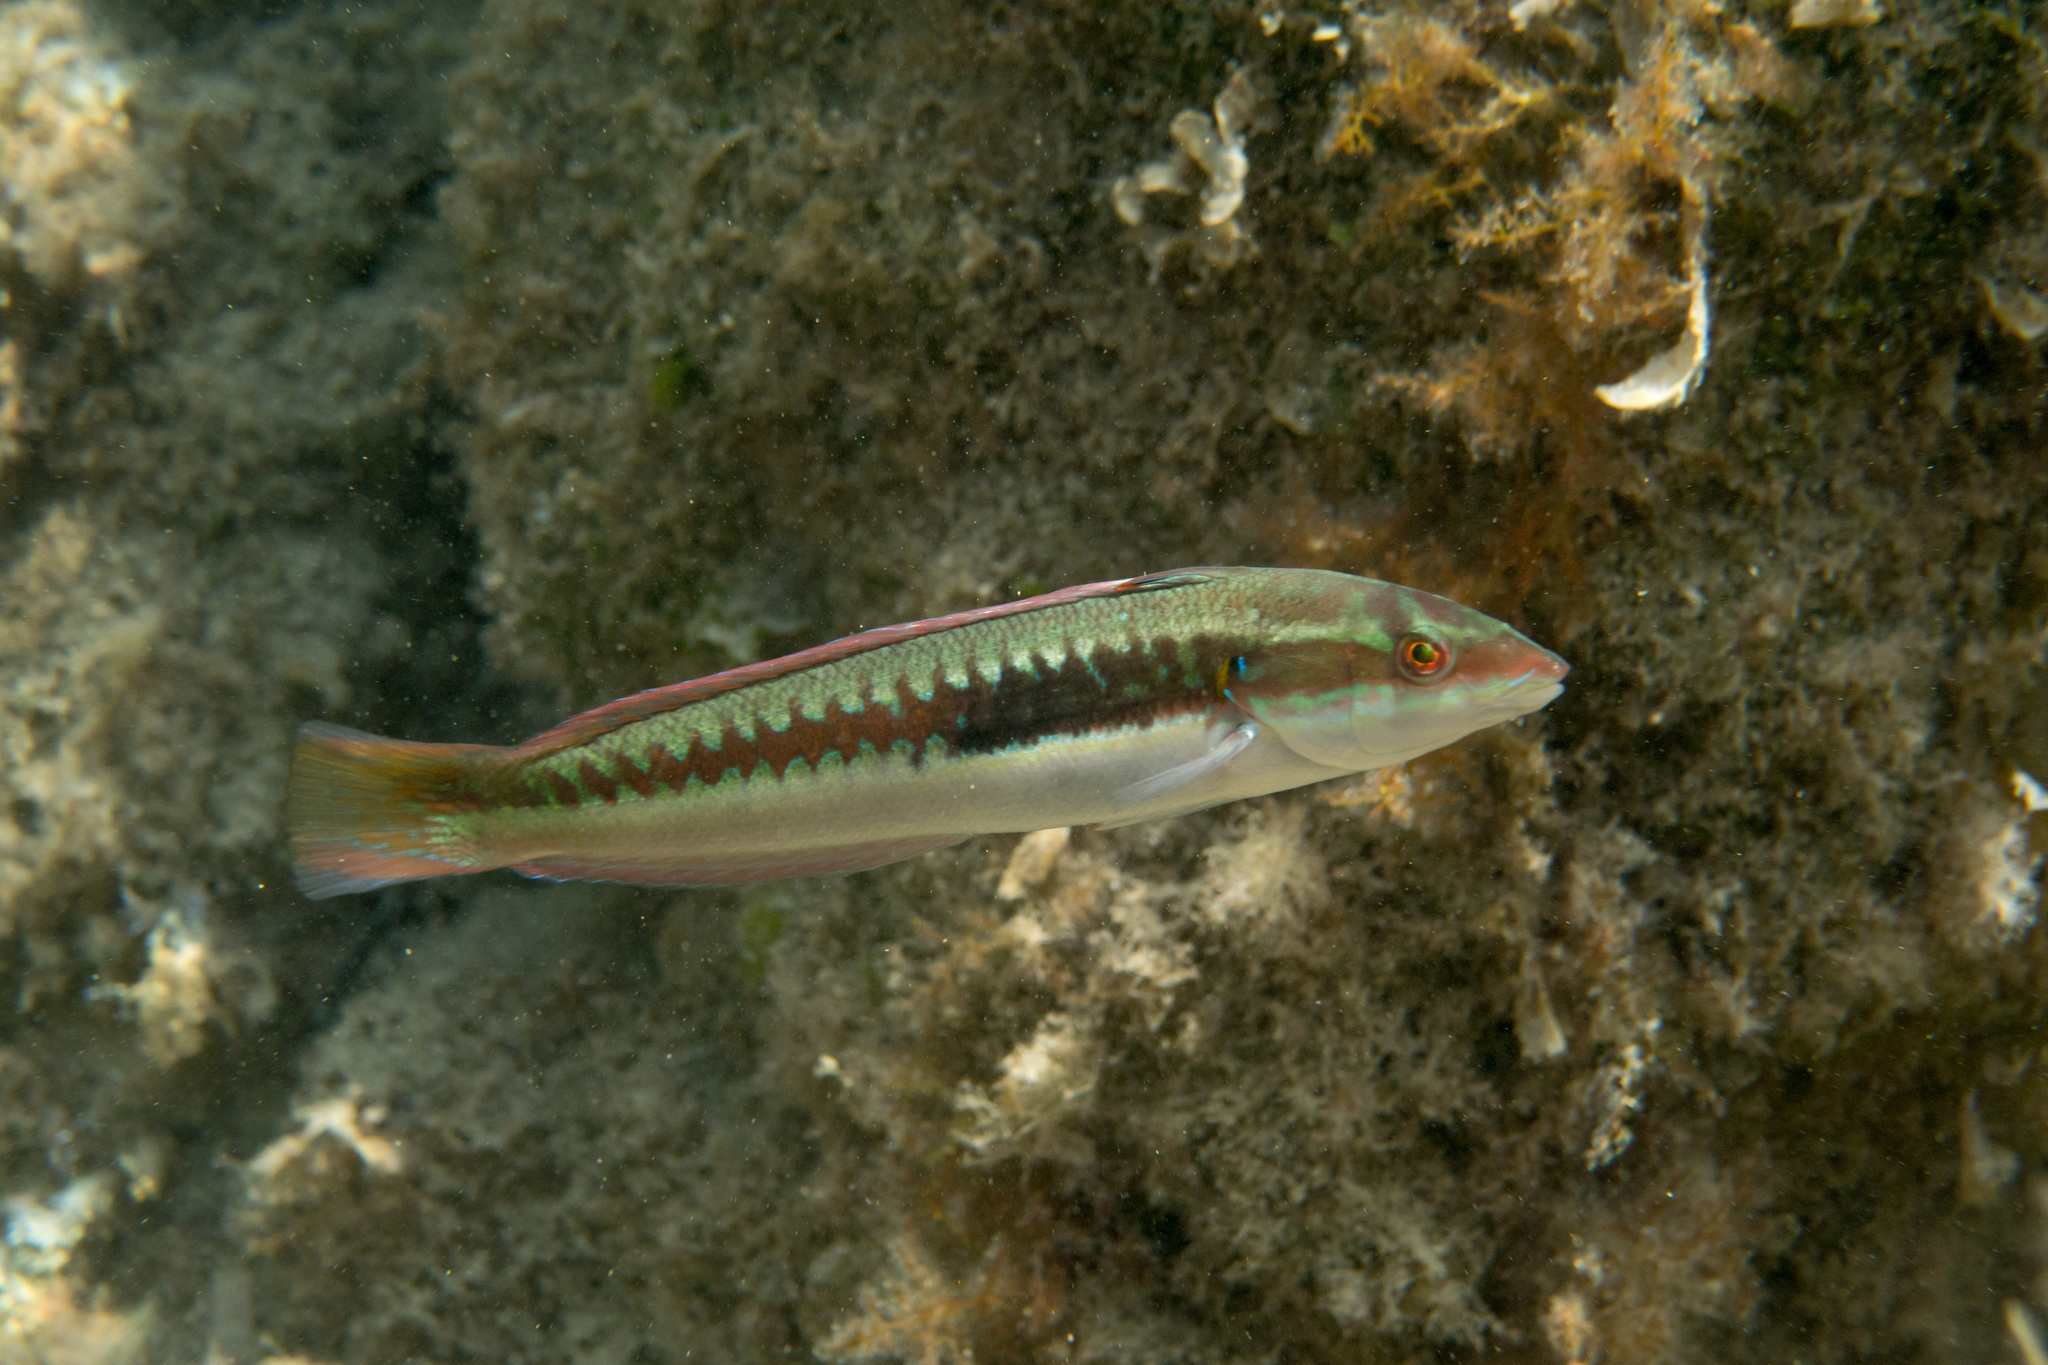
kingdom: Animalia
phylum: Chordata
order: Perciformes
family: Labridae
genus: Coris
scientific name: Coris julis
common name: Rainbow wrasse
